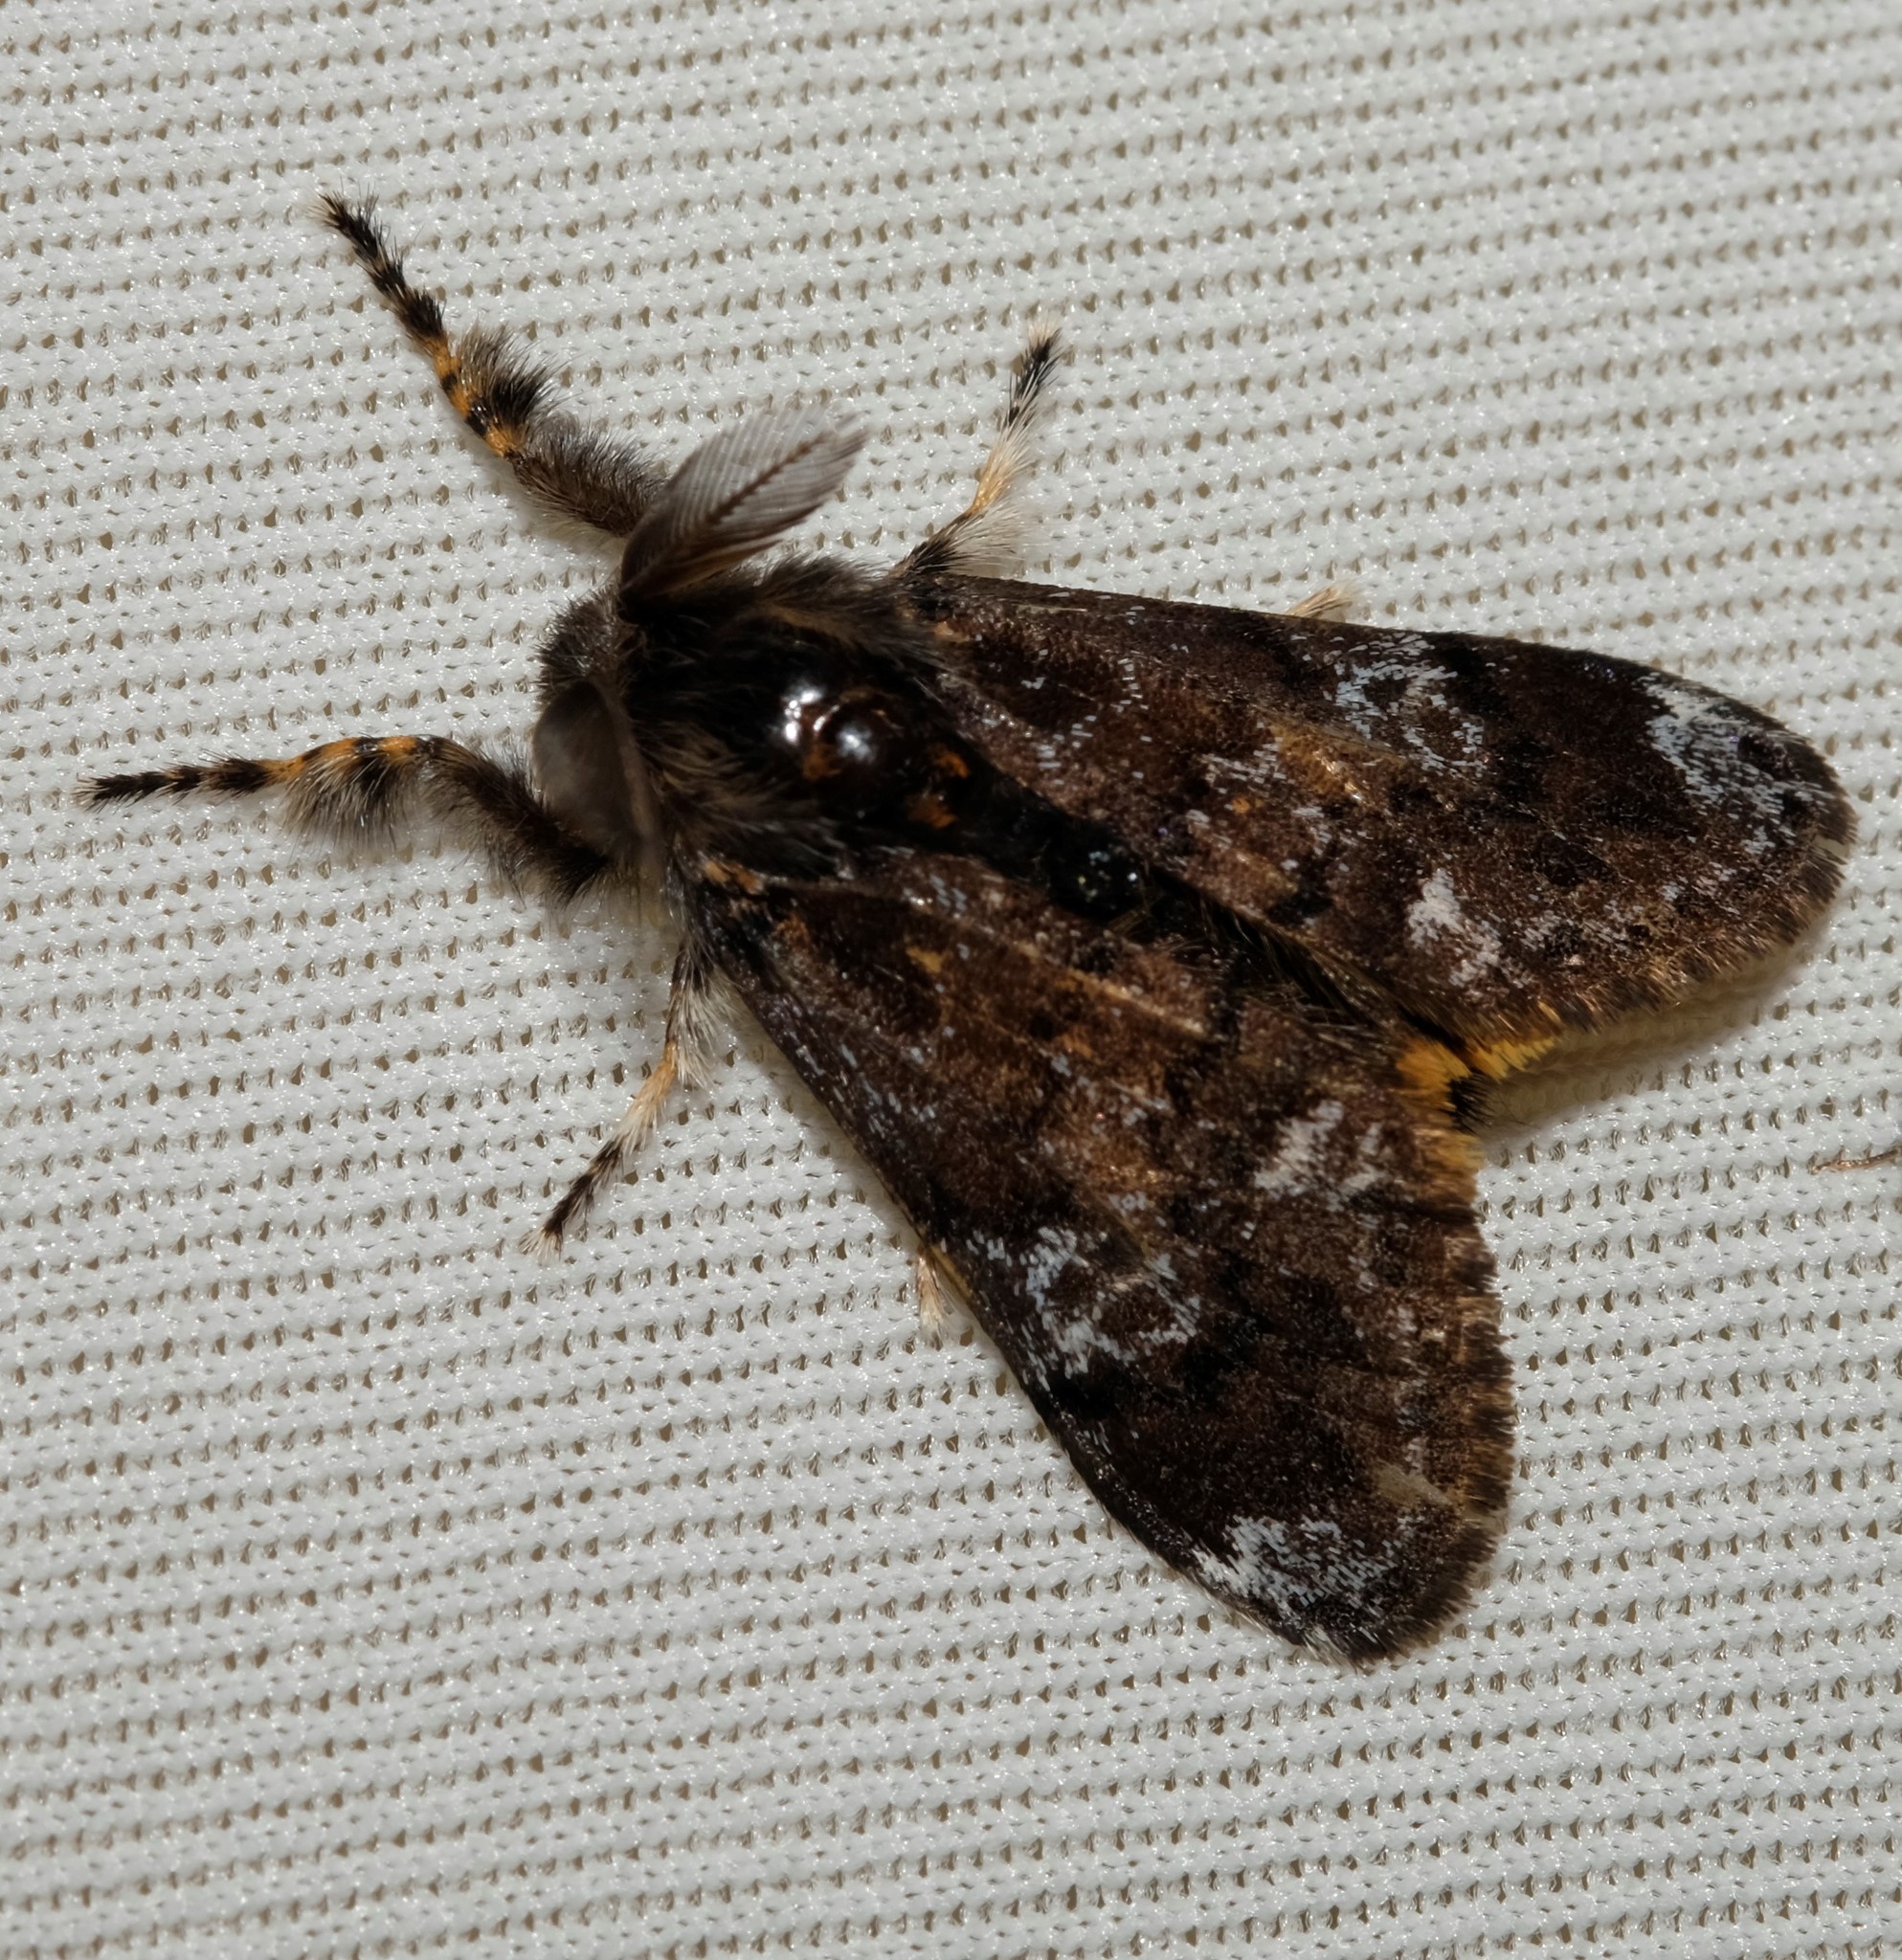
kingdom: Animalia
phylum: Arthropoda
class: Insecta
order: Lepidoptera
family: Erebidae
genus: Orgyia
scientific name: Orgyia
